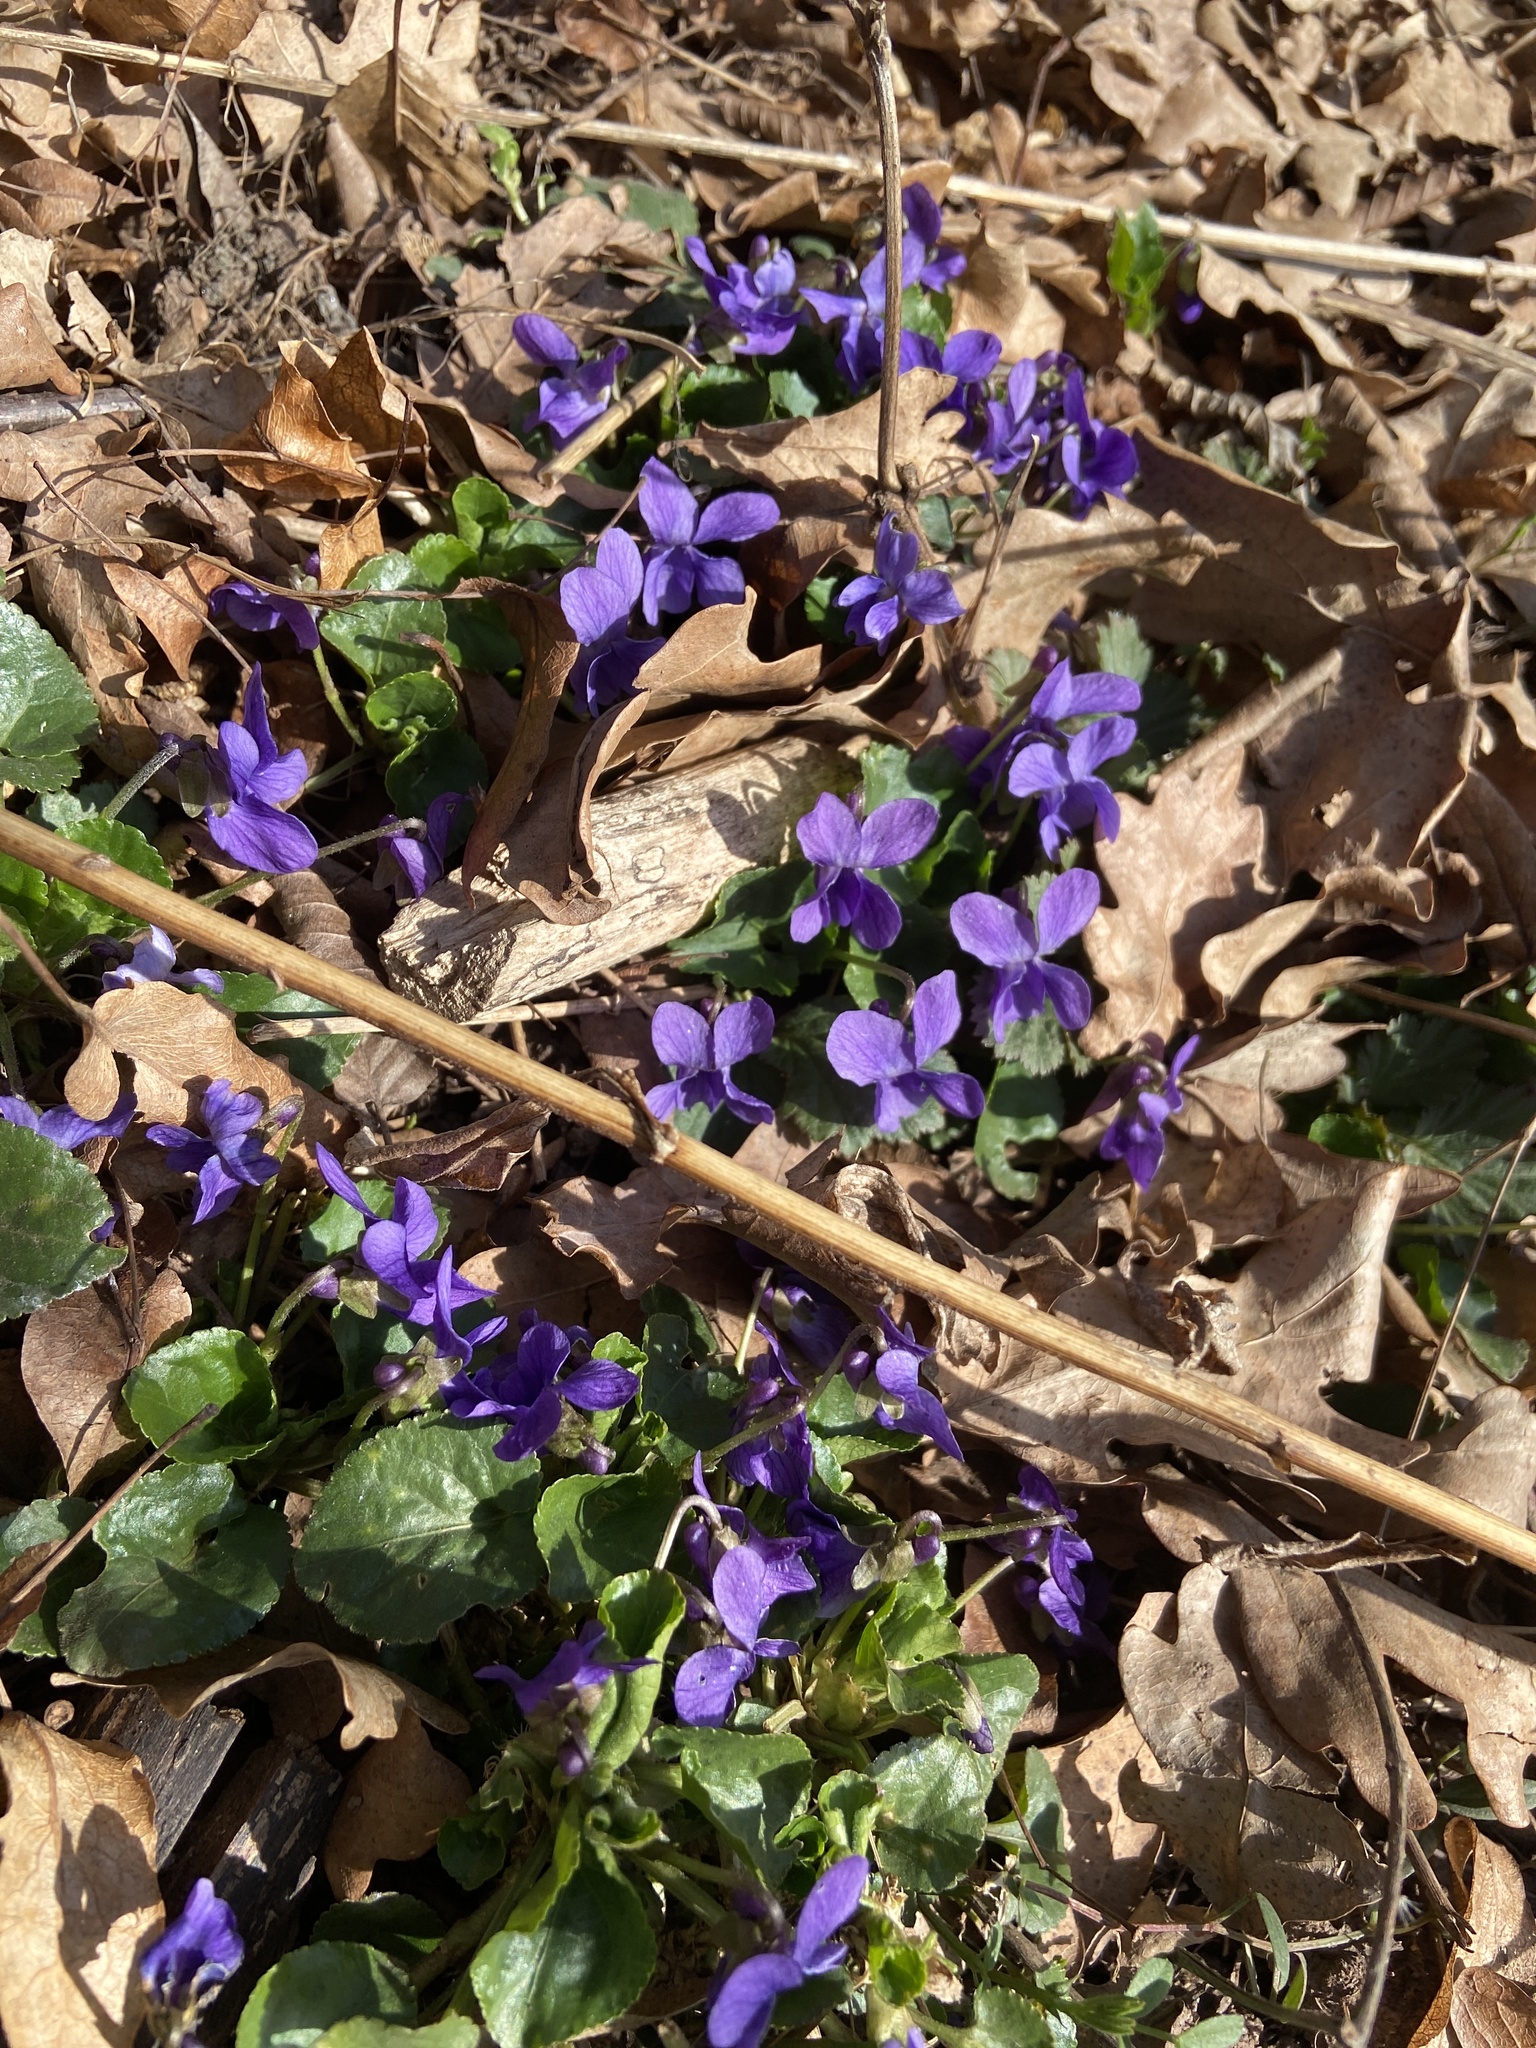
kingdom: Plantae
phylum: Tracheophyta
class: Magnoliopsida
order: Malpighiales
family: Violaceae
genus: Viola
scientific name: Viola odorata
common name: Sweet violet
